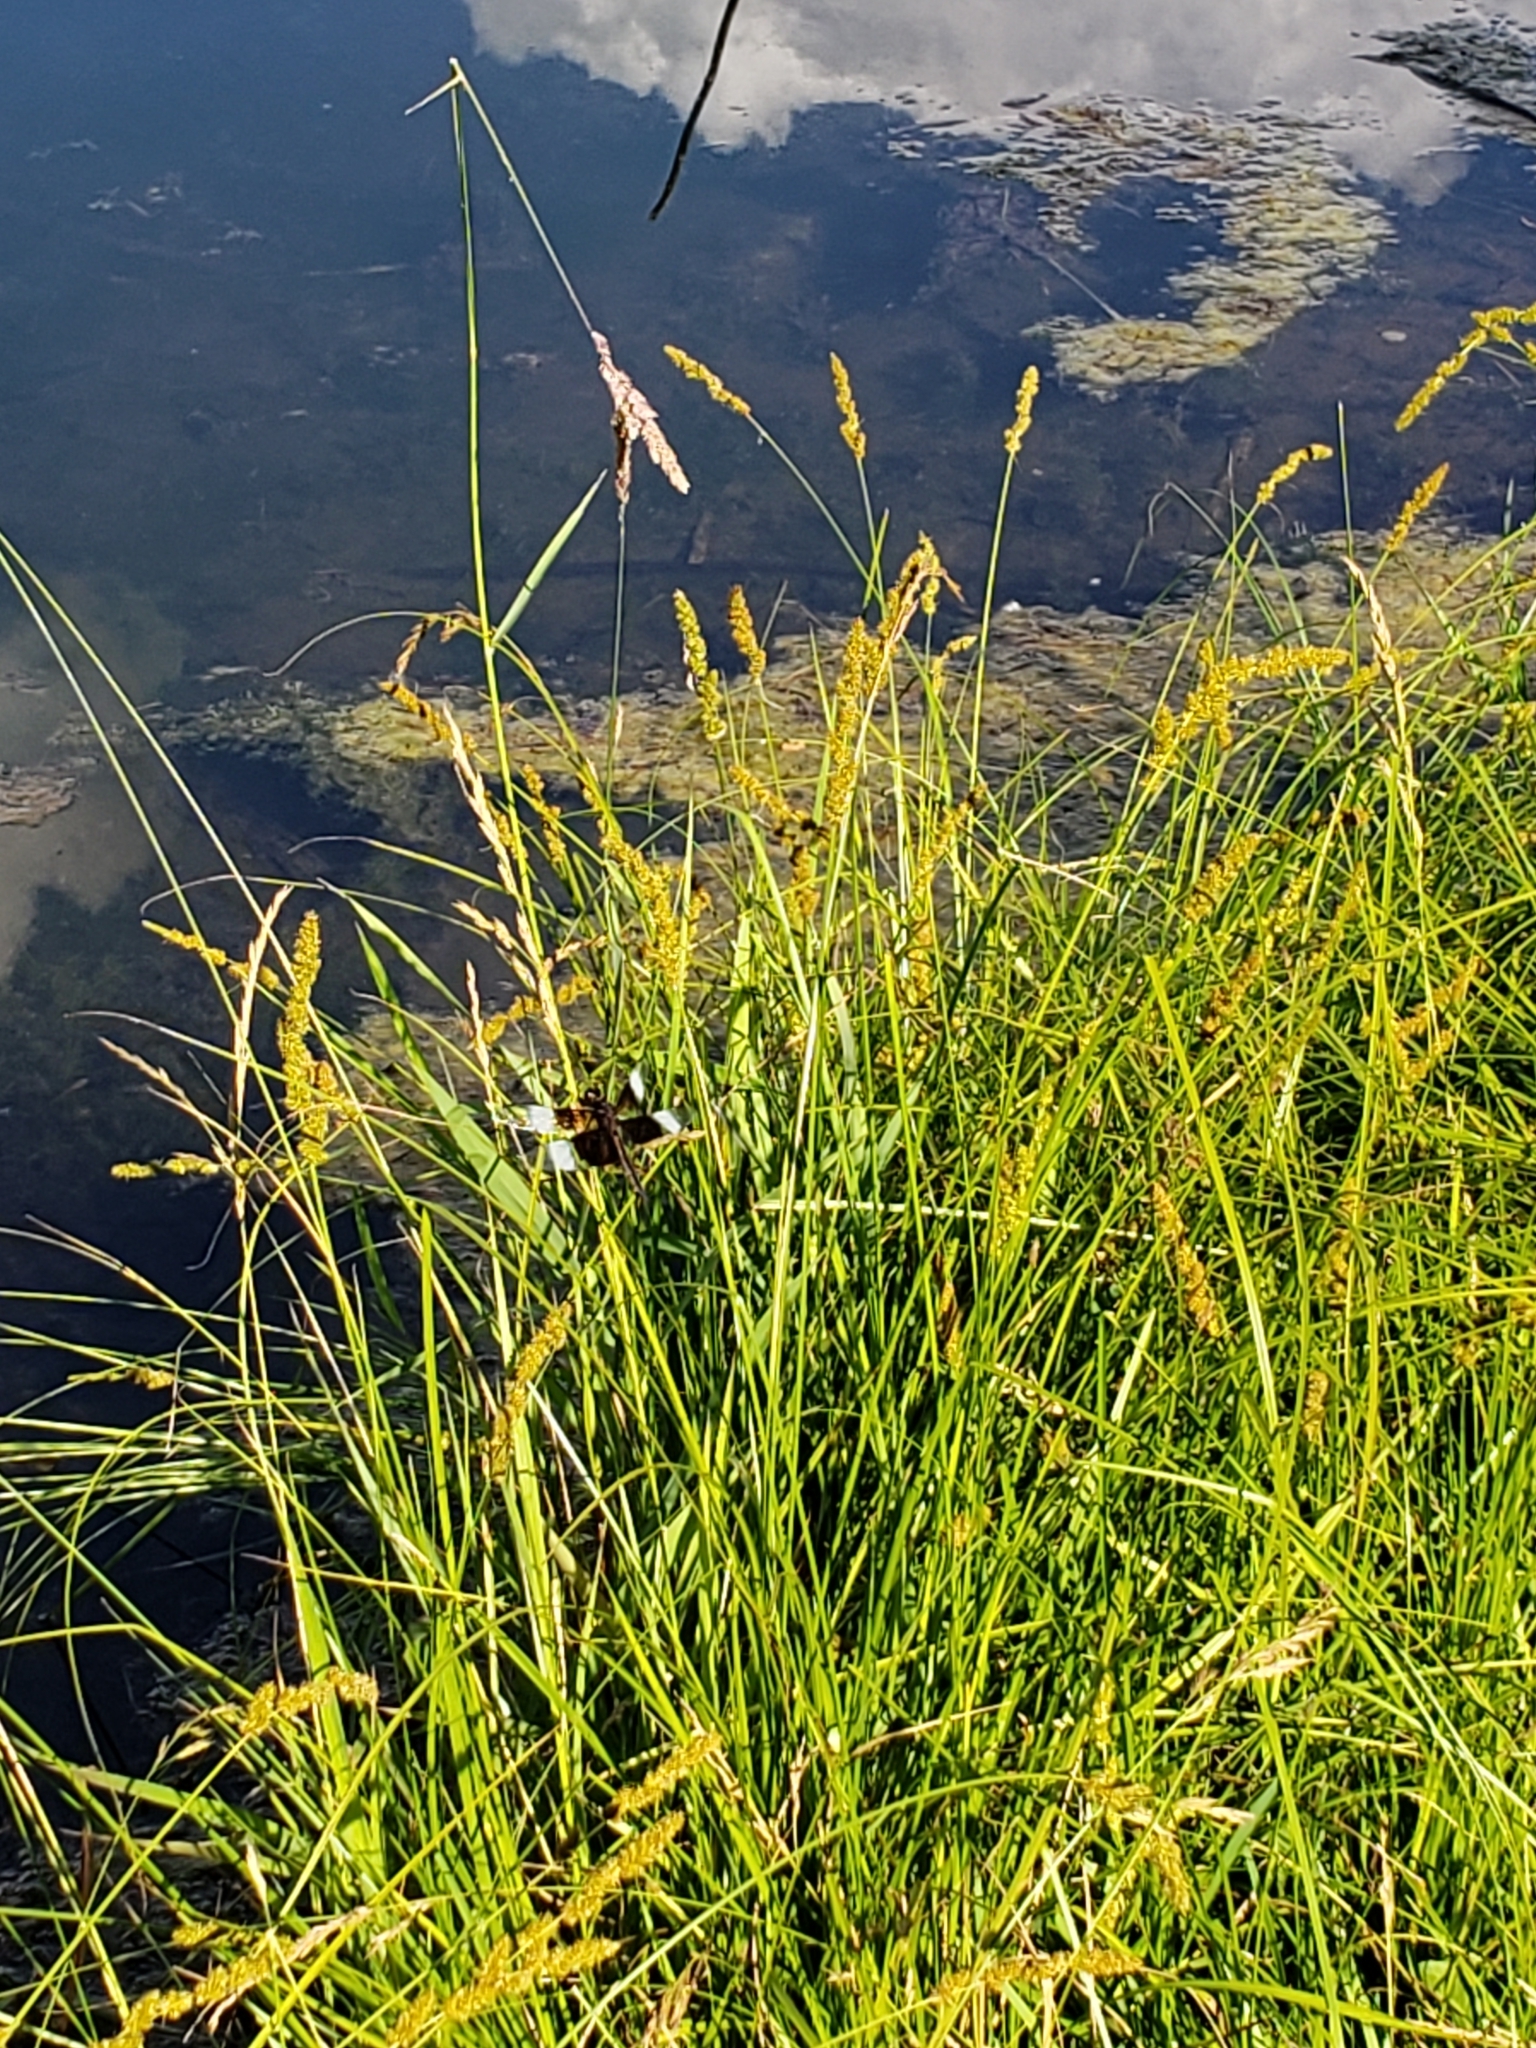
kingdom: Animalia
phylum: Arthropoda
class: Insecta
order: Odonata
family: Libellulidae
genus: Libellula
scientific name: Libellula luctuosa
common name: Widow skimmer
